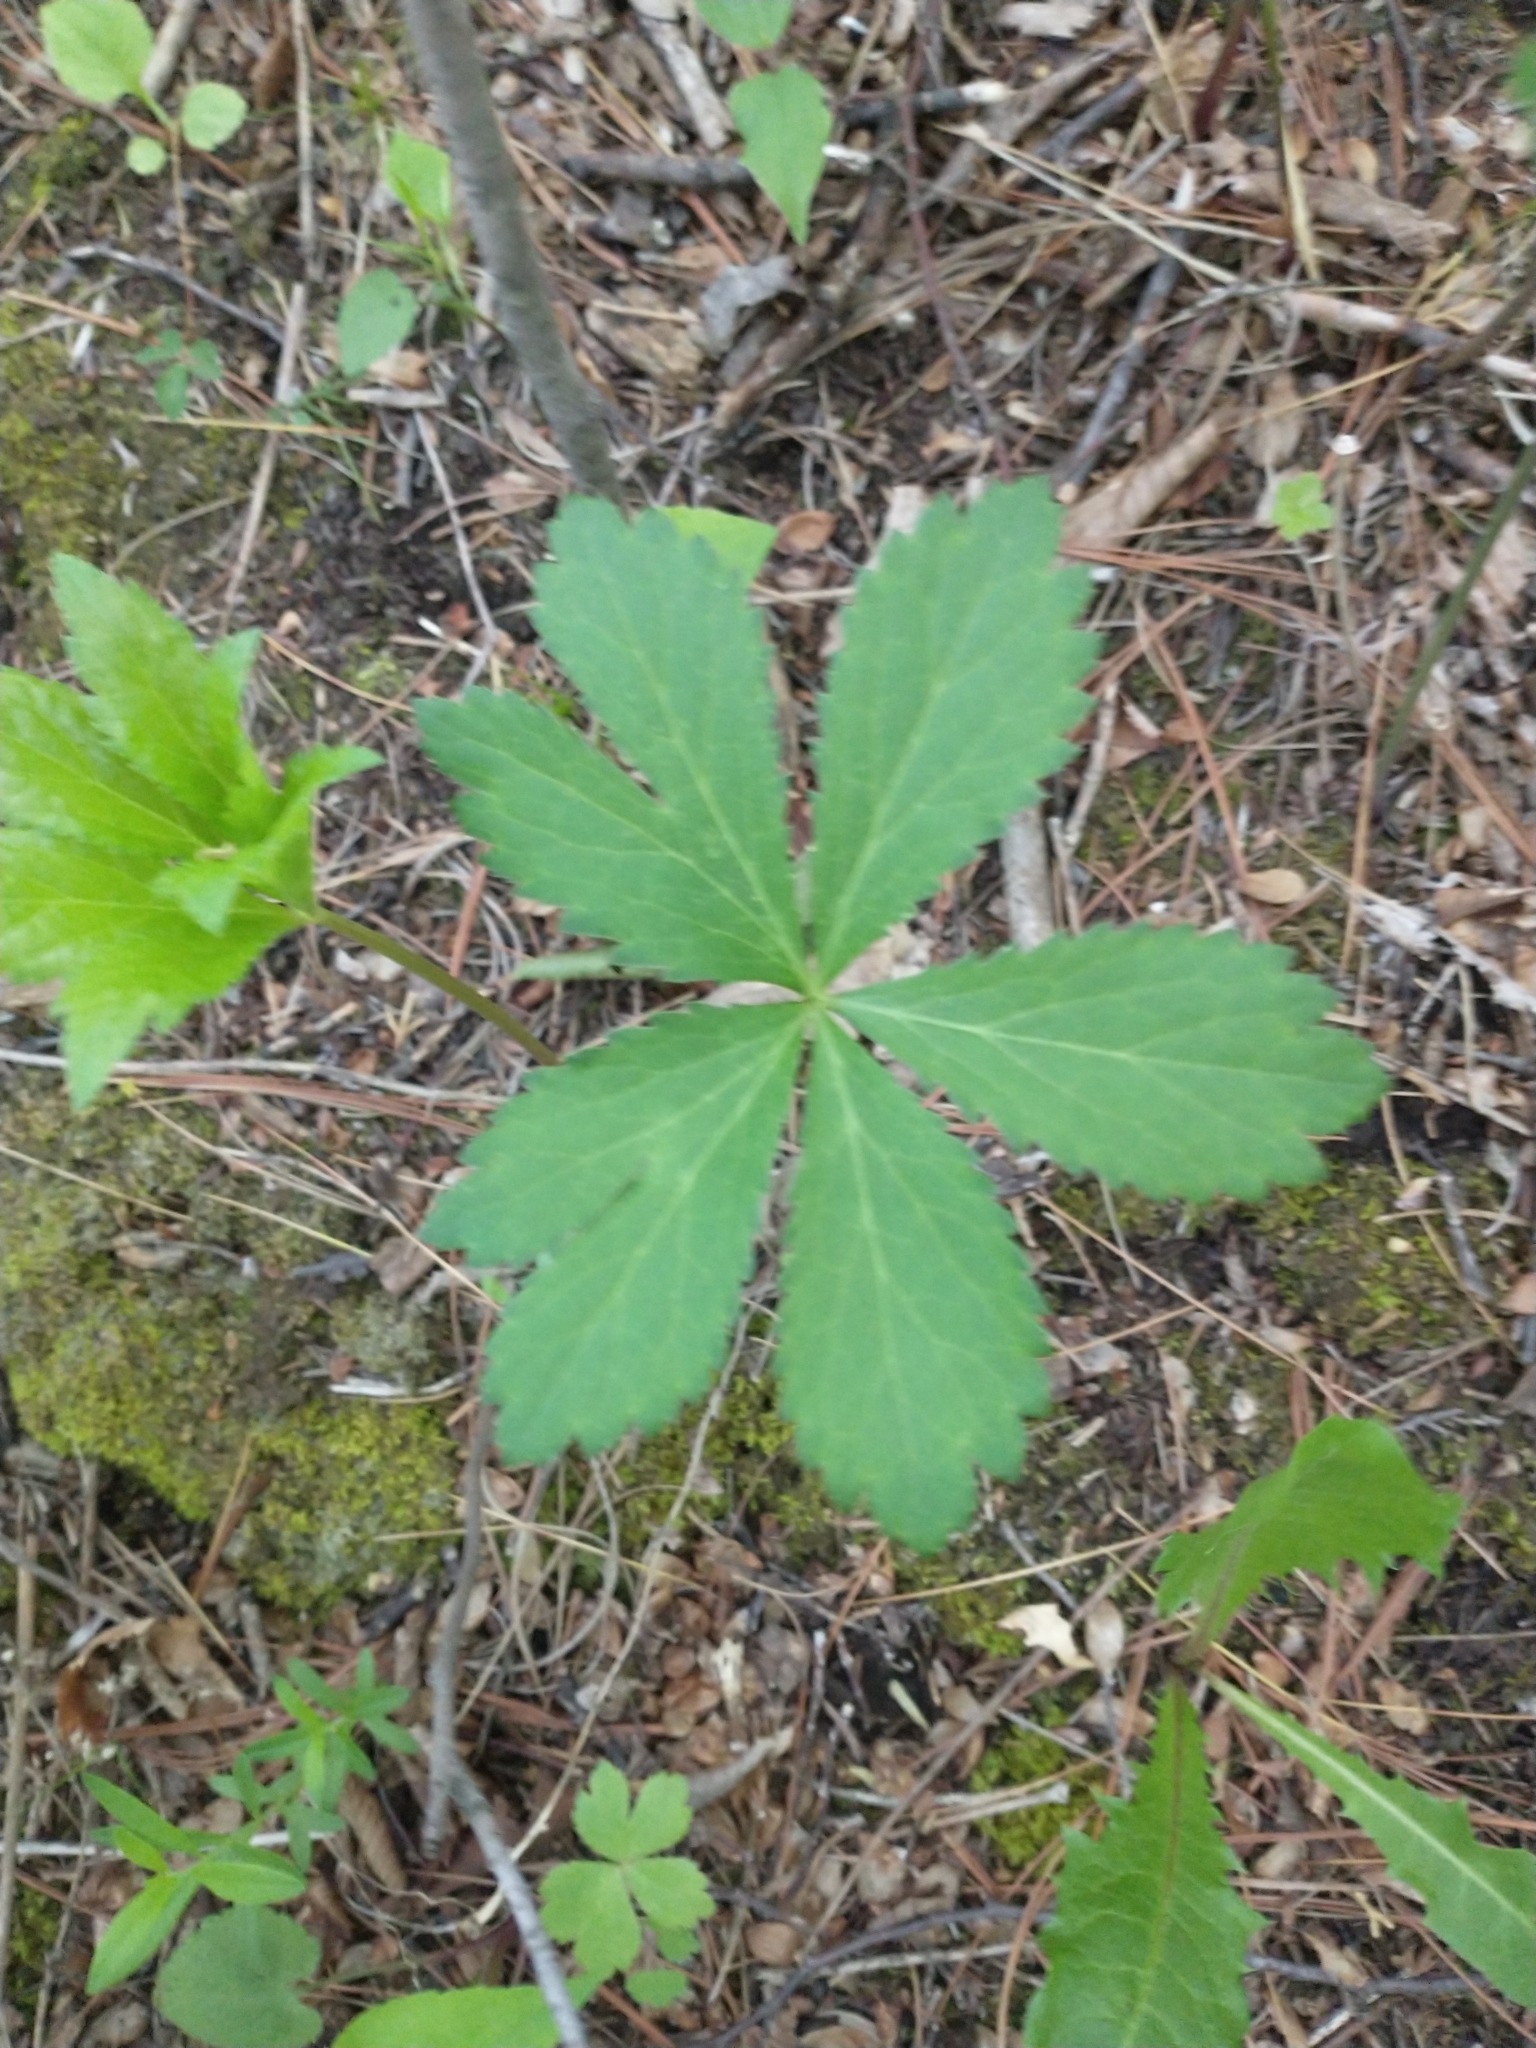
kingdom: Plantae
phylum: Tracheophyta
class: Magnoliopsida
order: Apiales
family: Apiaceae
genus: Sanicula
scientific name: Sanicula marilandica
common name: Black snakeroot
